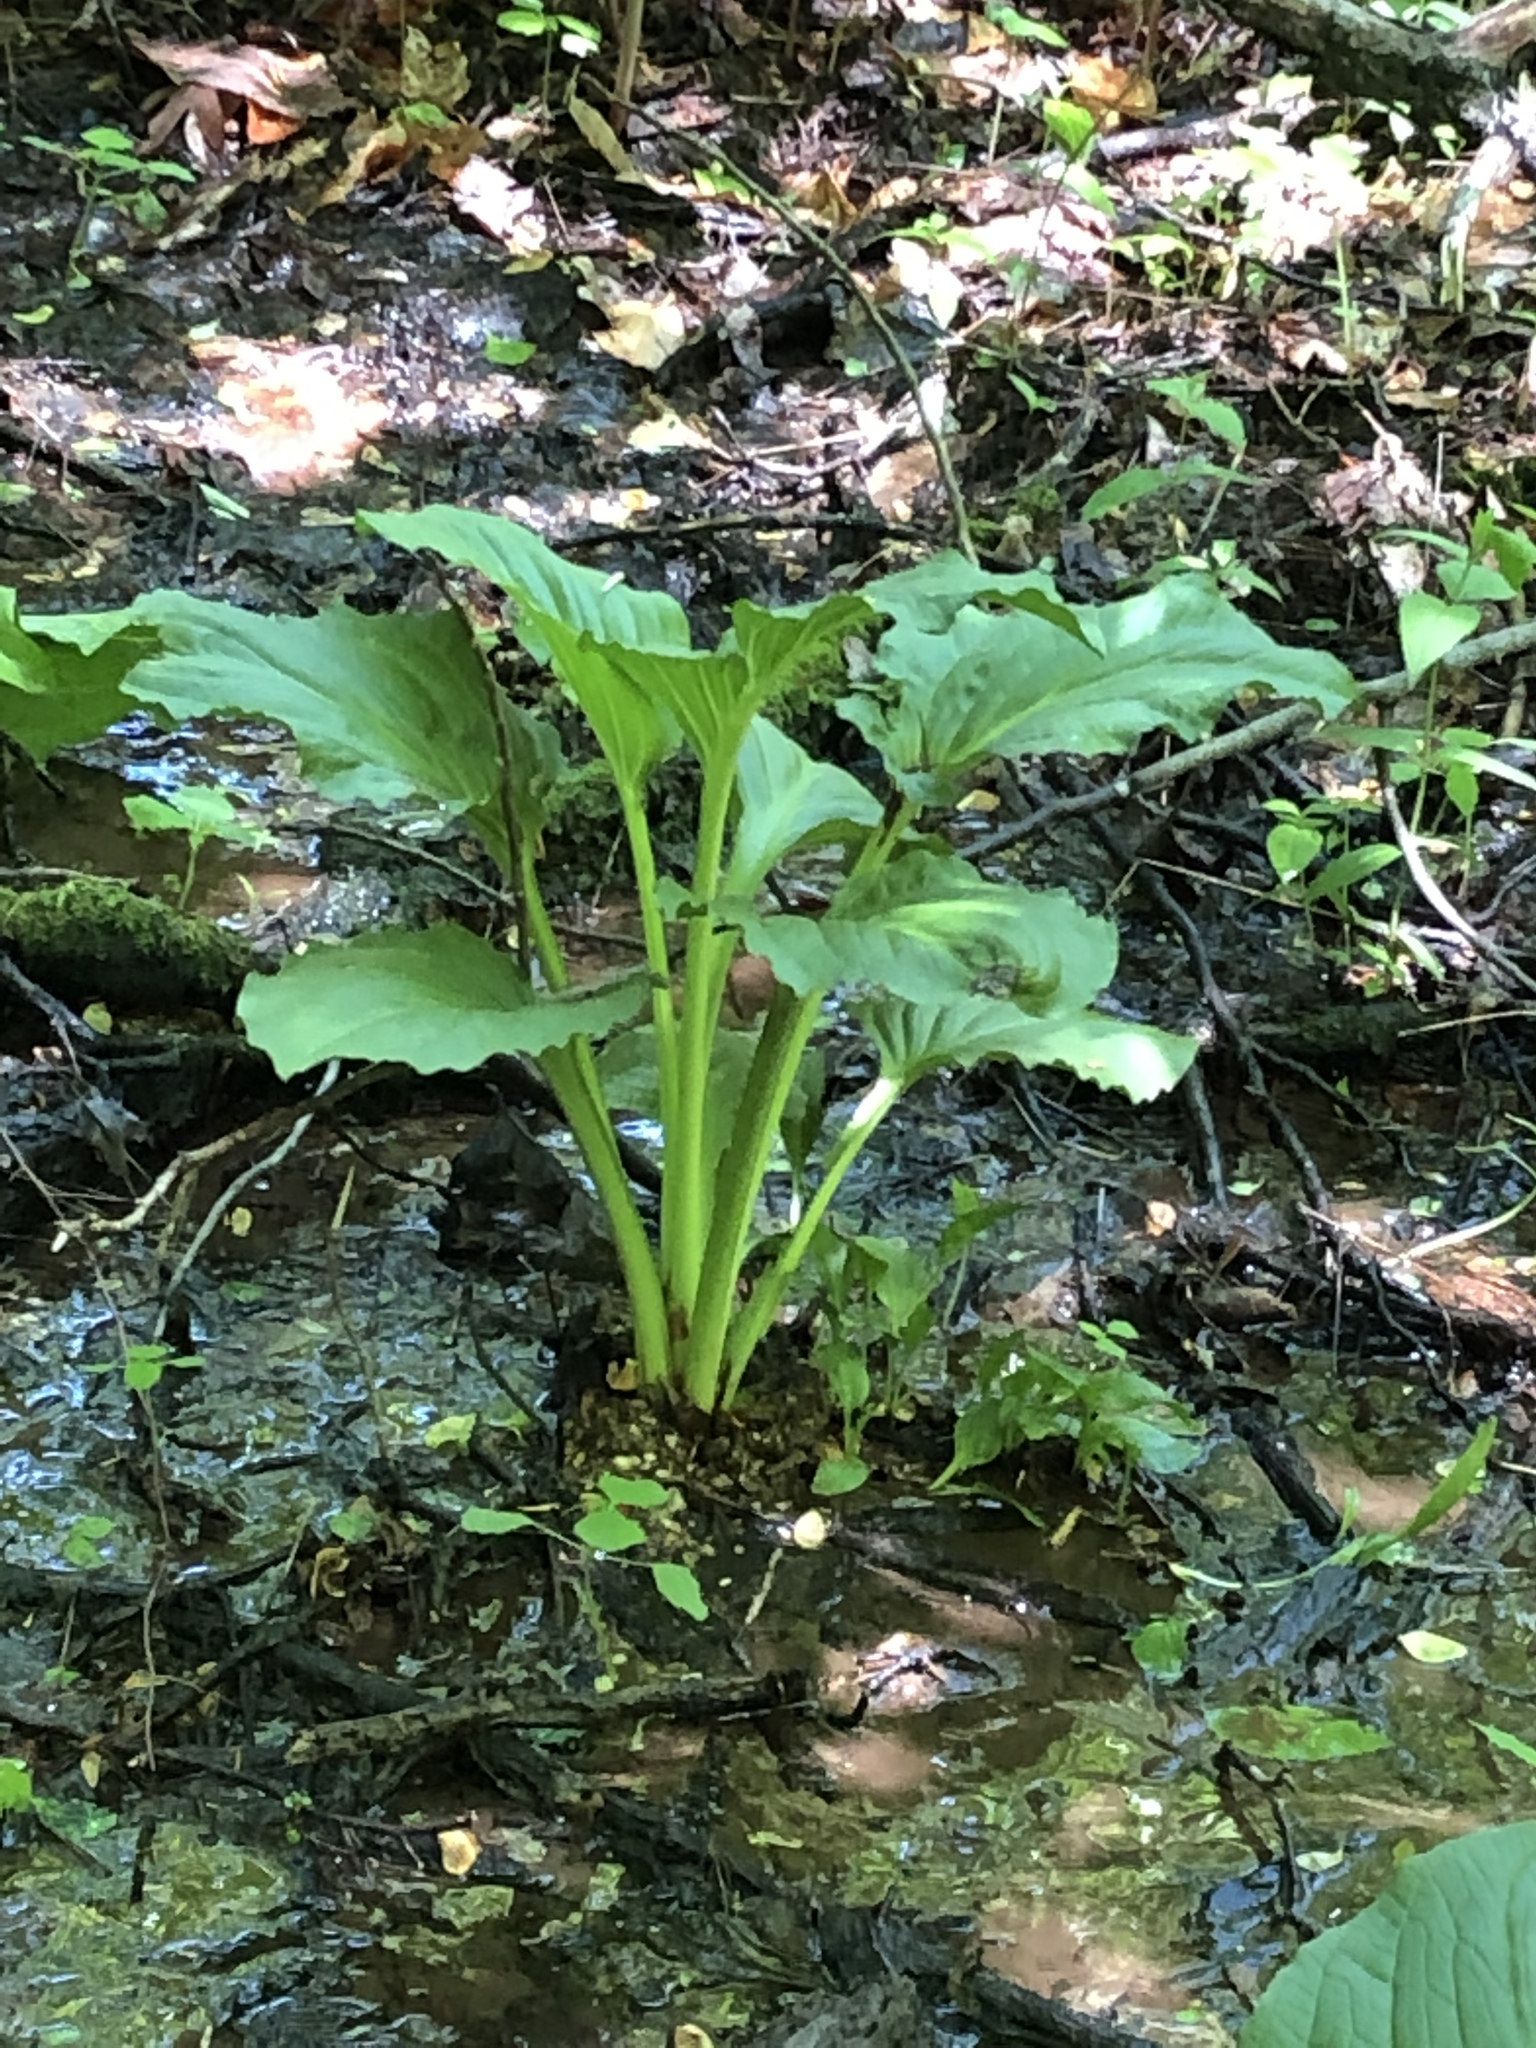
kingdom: Plantae
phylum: Tracheophyta
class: Liliopsida
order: Alismatales
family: Araceae
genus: Symplocarpus
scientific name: Symplocarpus foetidus
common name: Eastern skunk cabbage
